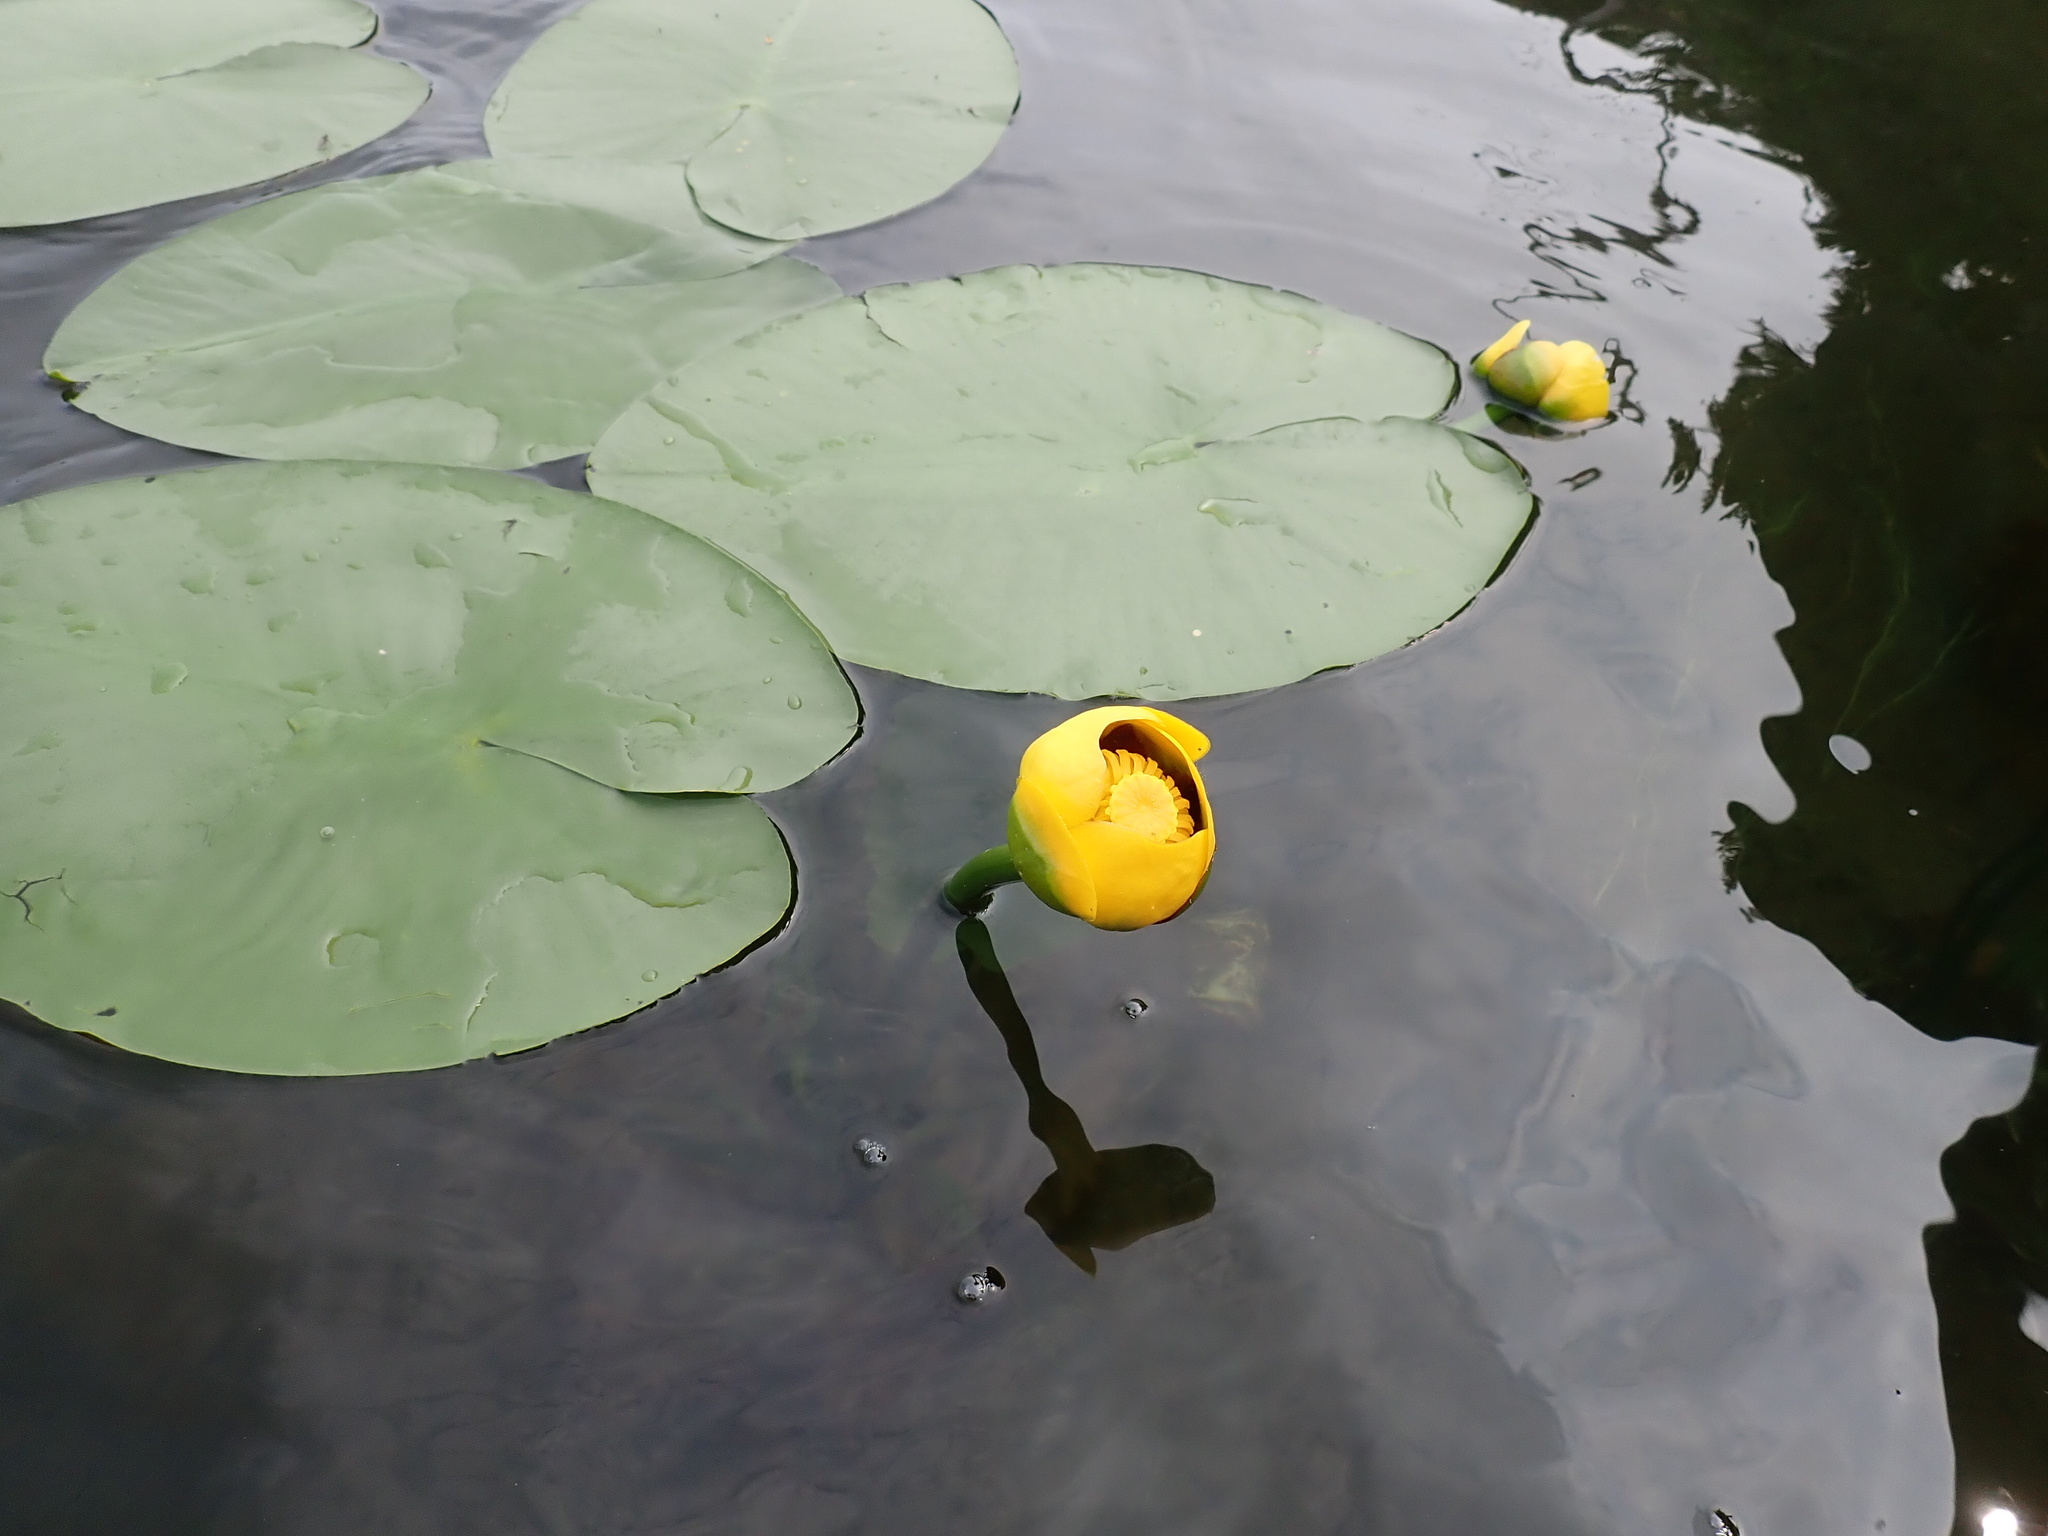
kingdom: Plantae
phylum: Tracheophyta
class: Magnoliopsida
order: Nymphaeales
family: Nymphaeaceae
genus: Nuphar
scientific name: Nuphar variegata
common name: Beaver-root
